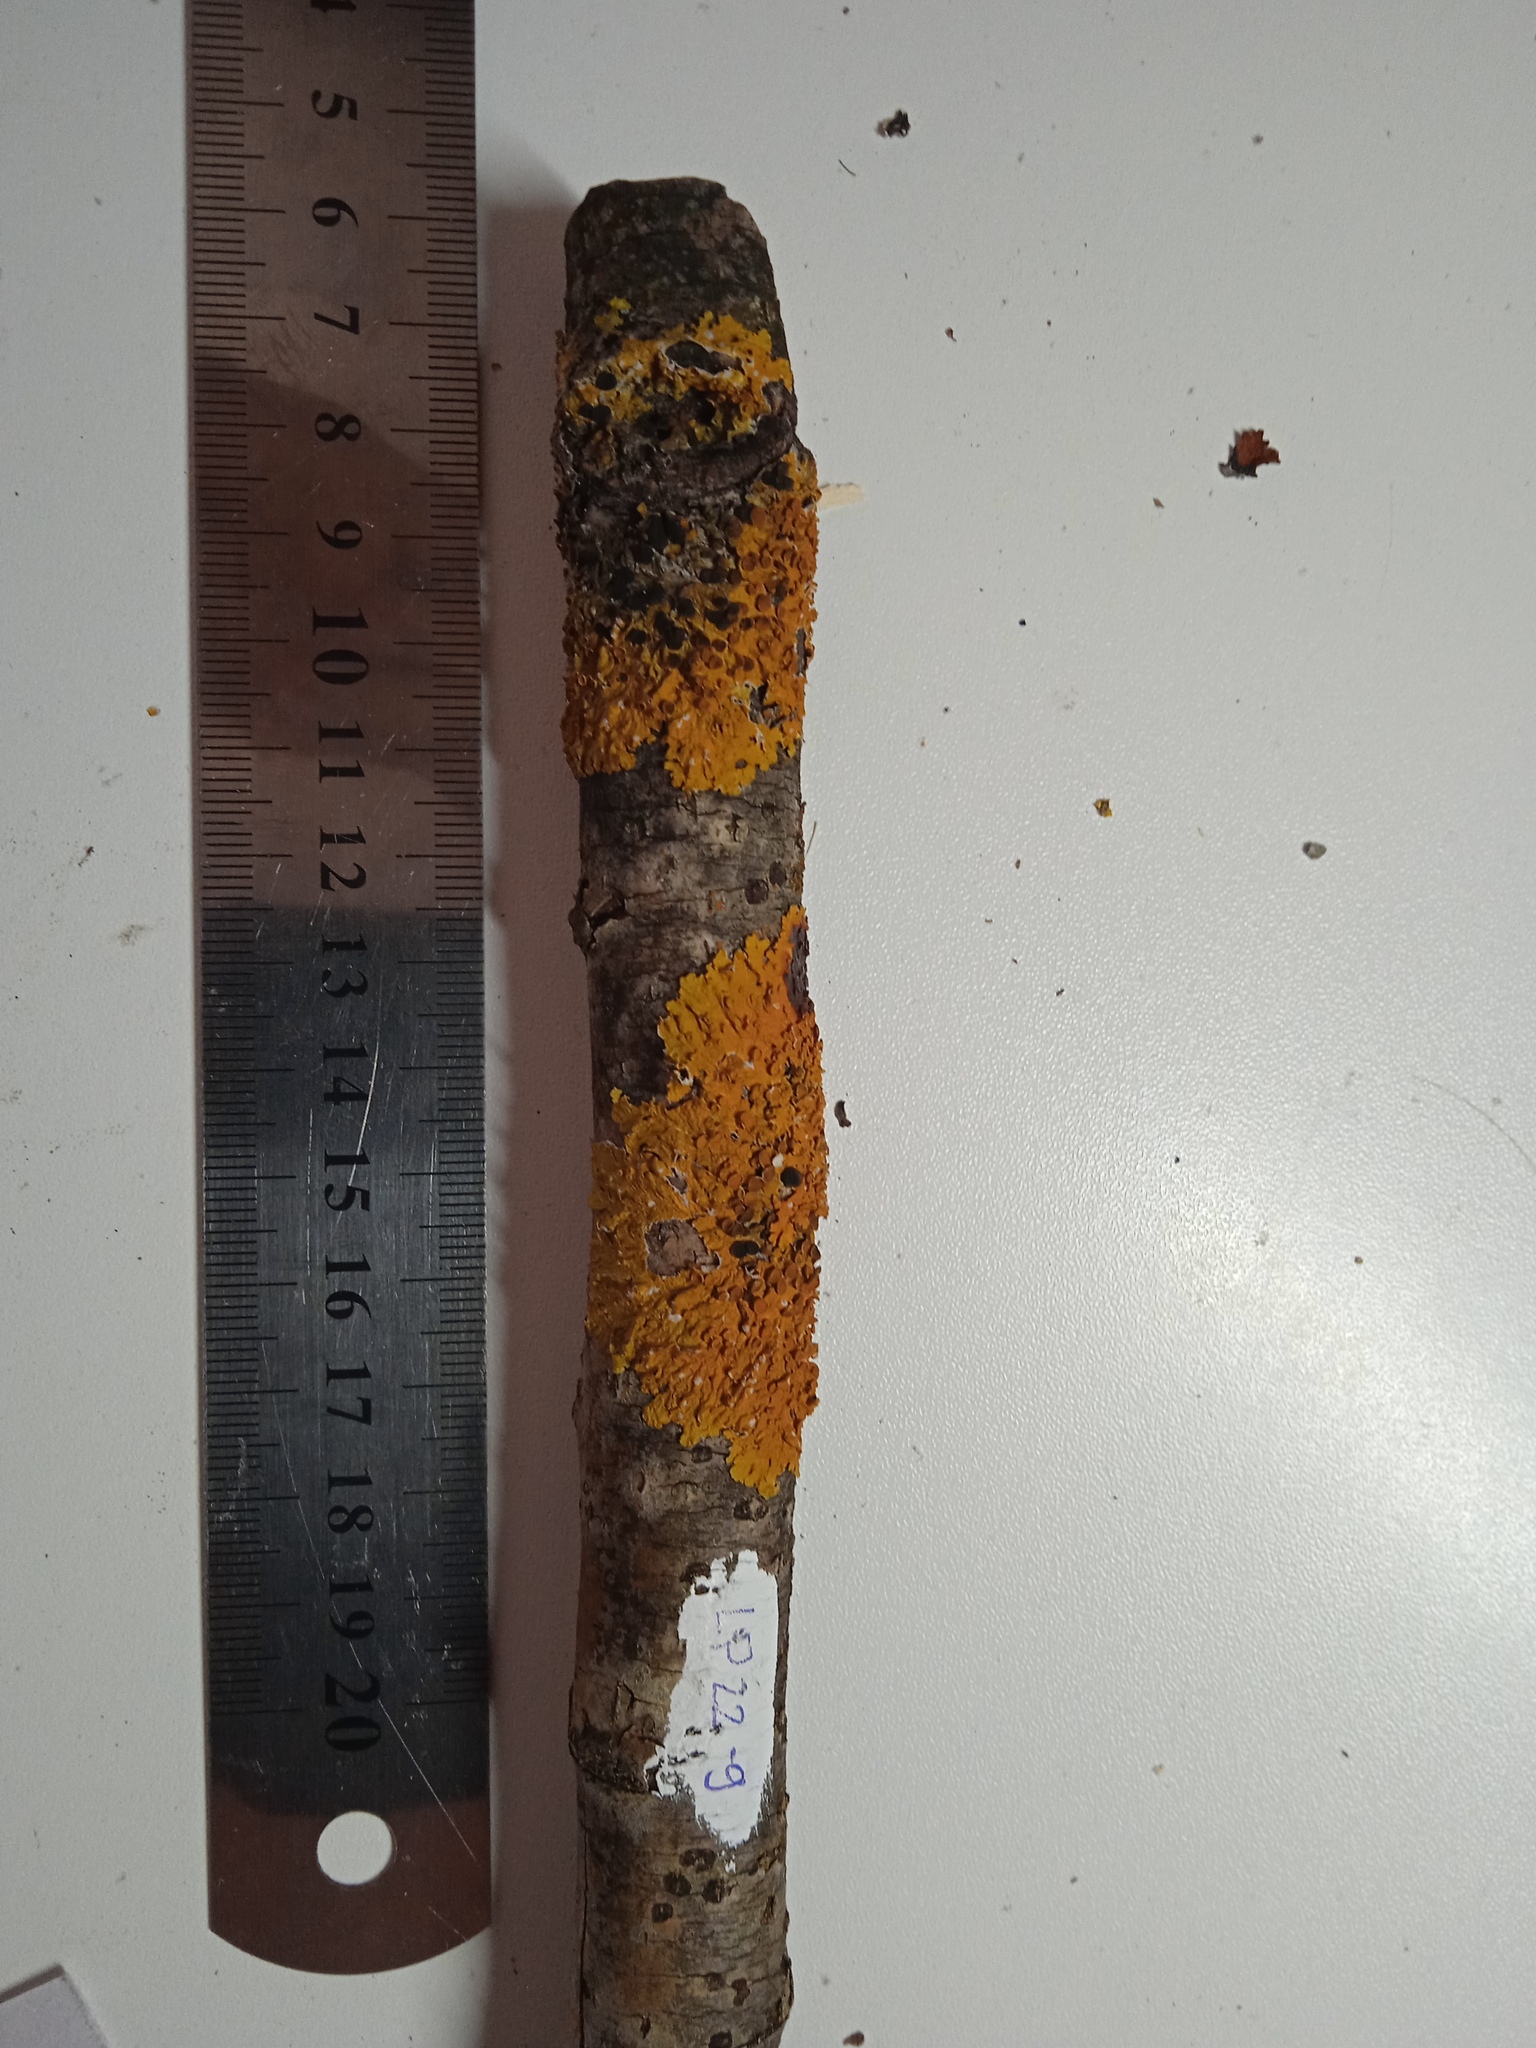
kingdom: Fungi
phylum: Ascomycota
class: Lecanoromycetes
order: Teloschistales
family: Teloschistaceae
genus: Xanthoria
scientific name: Xanthoria parietina
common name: Common orange lichen
